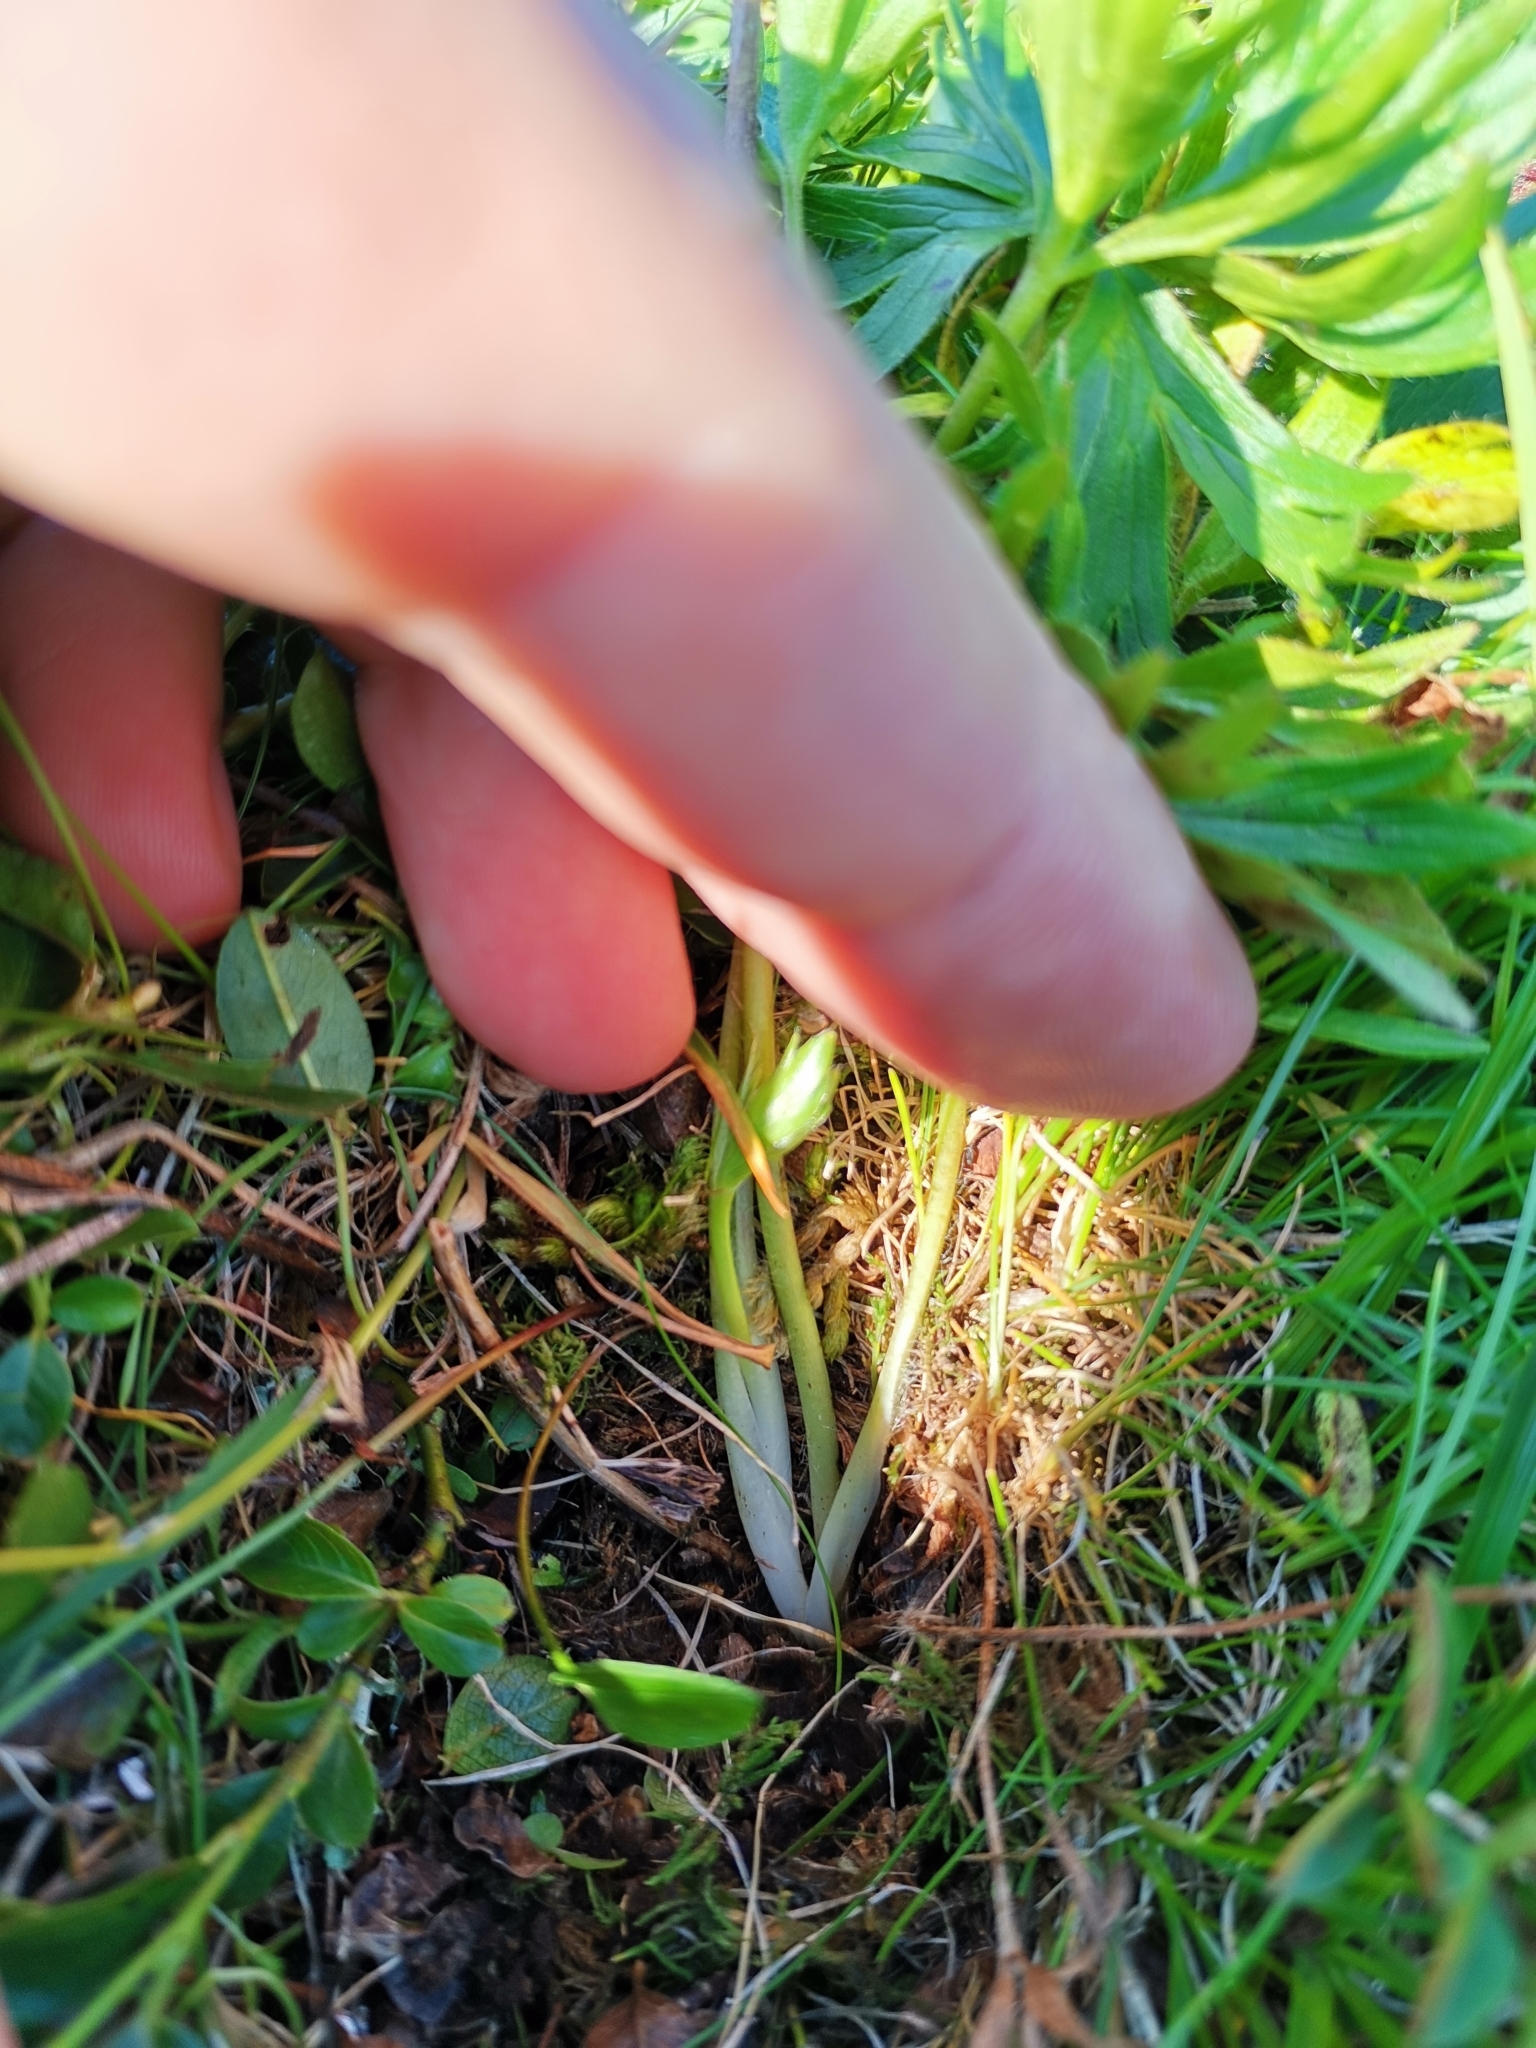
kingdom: Plantae
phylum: Tracheophyta
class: Magnoliopsida
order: Ranunculales
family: Ranunculaceae
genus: Anemonastrum
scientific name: Anemonastrum narcissiflorum
